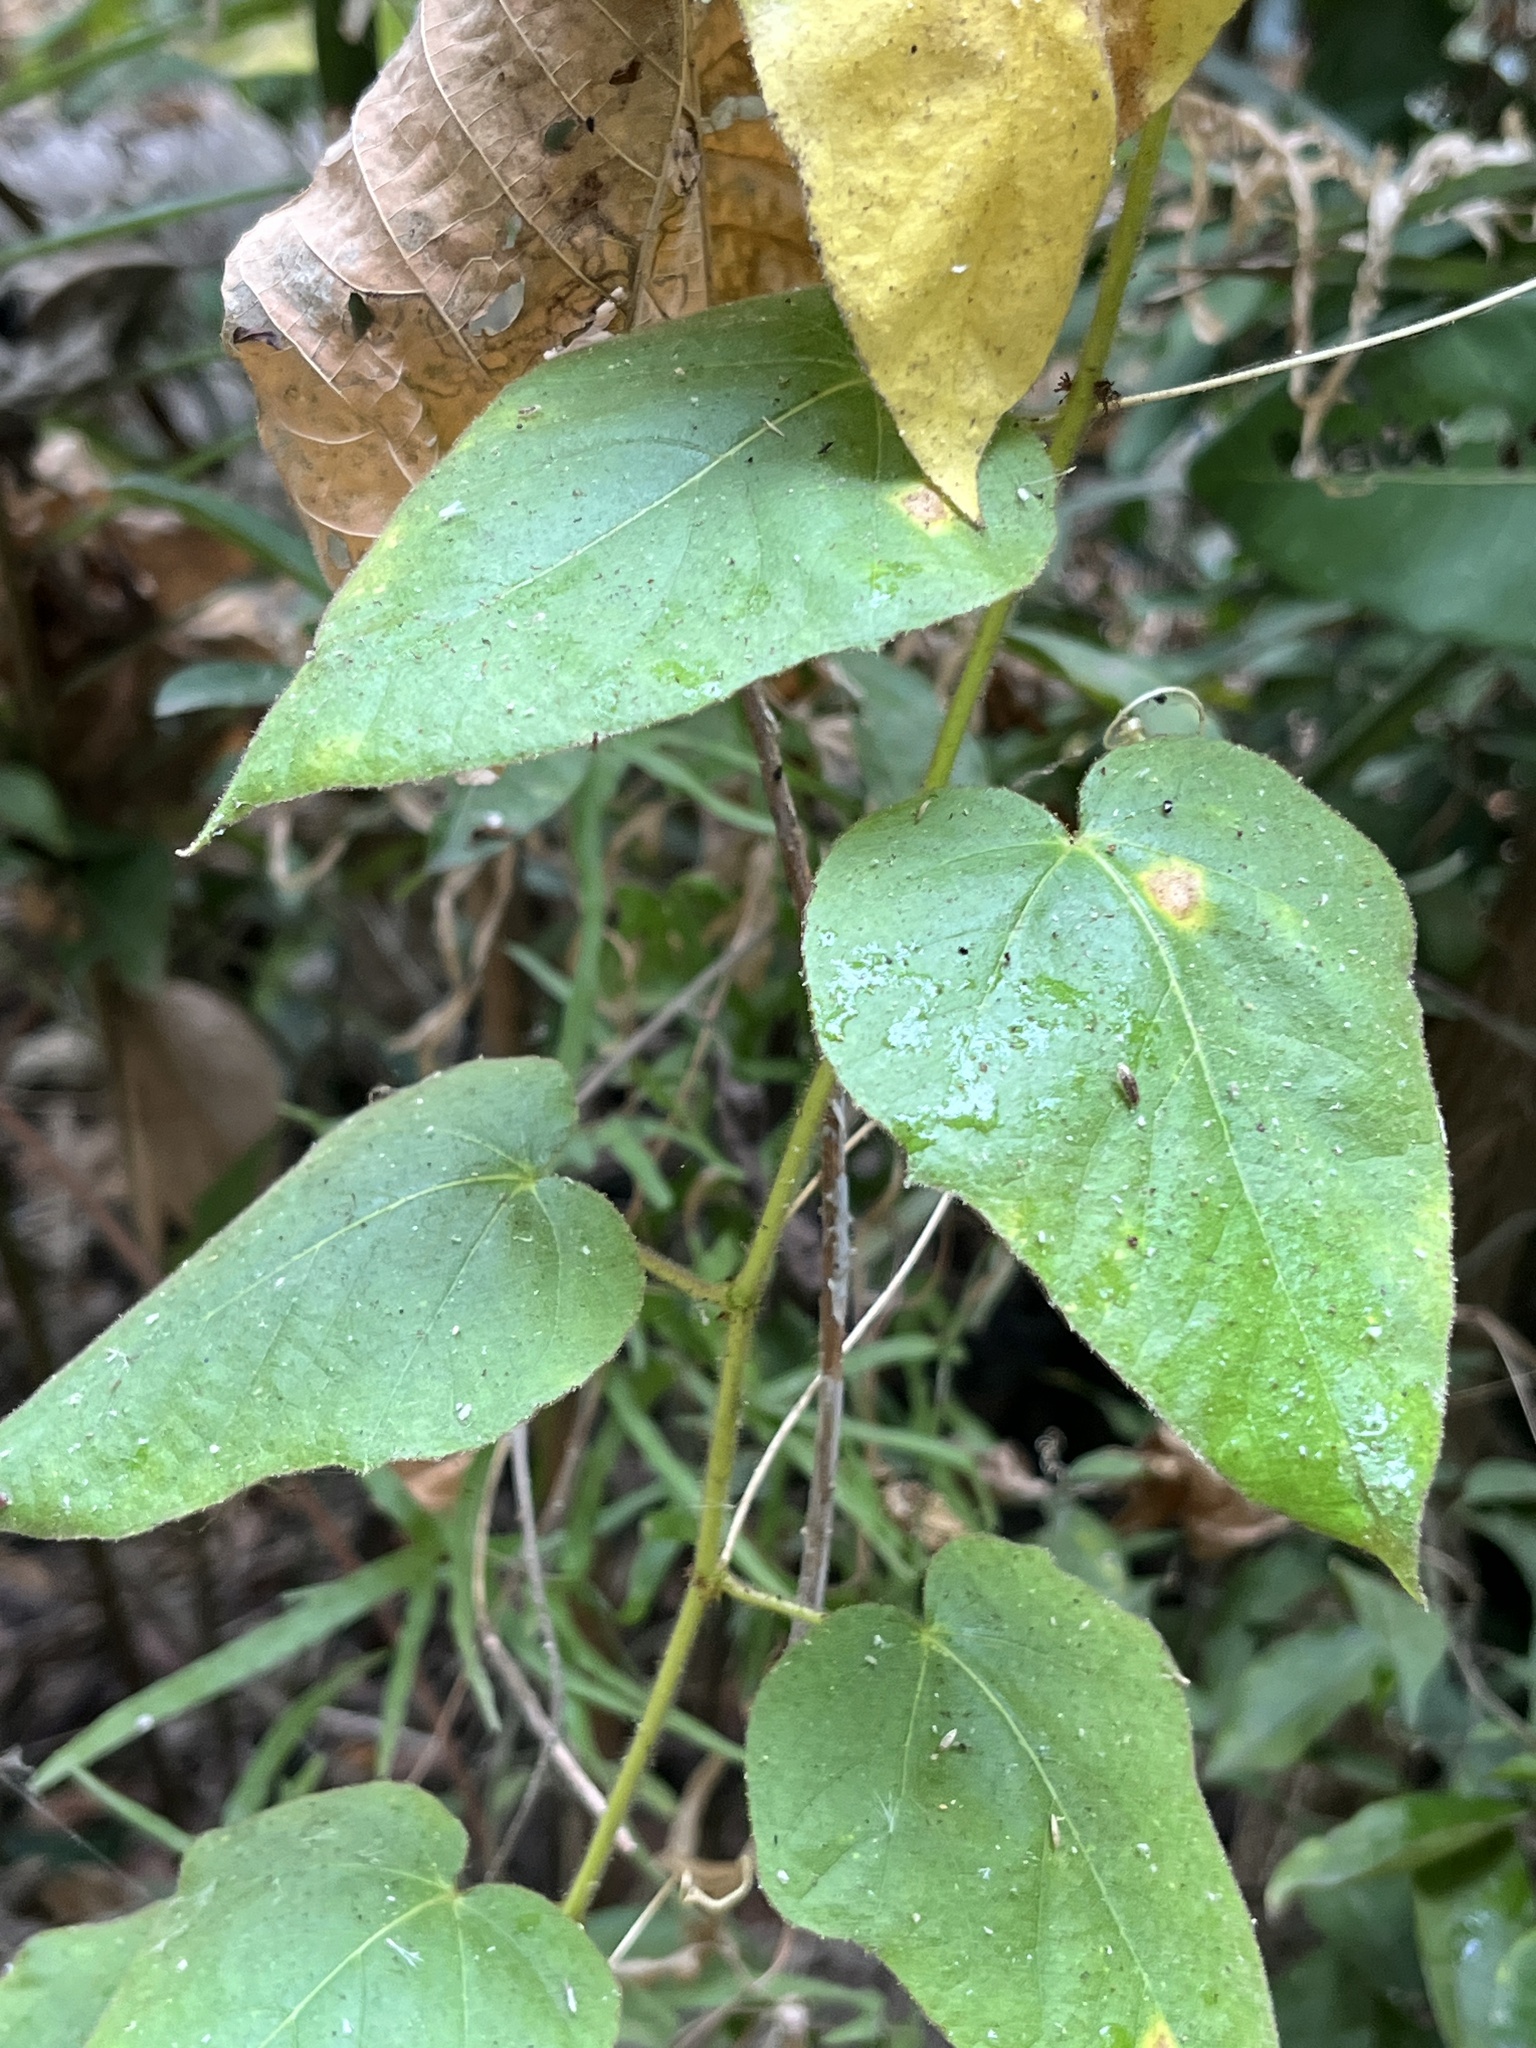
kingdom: Plantae
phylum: Tracheophyta
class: Magnoliopsida
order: Malpighiales
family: Passifloraceae
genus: Passiflora
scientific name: Passiflora vesicaria
